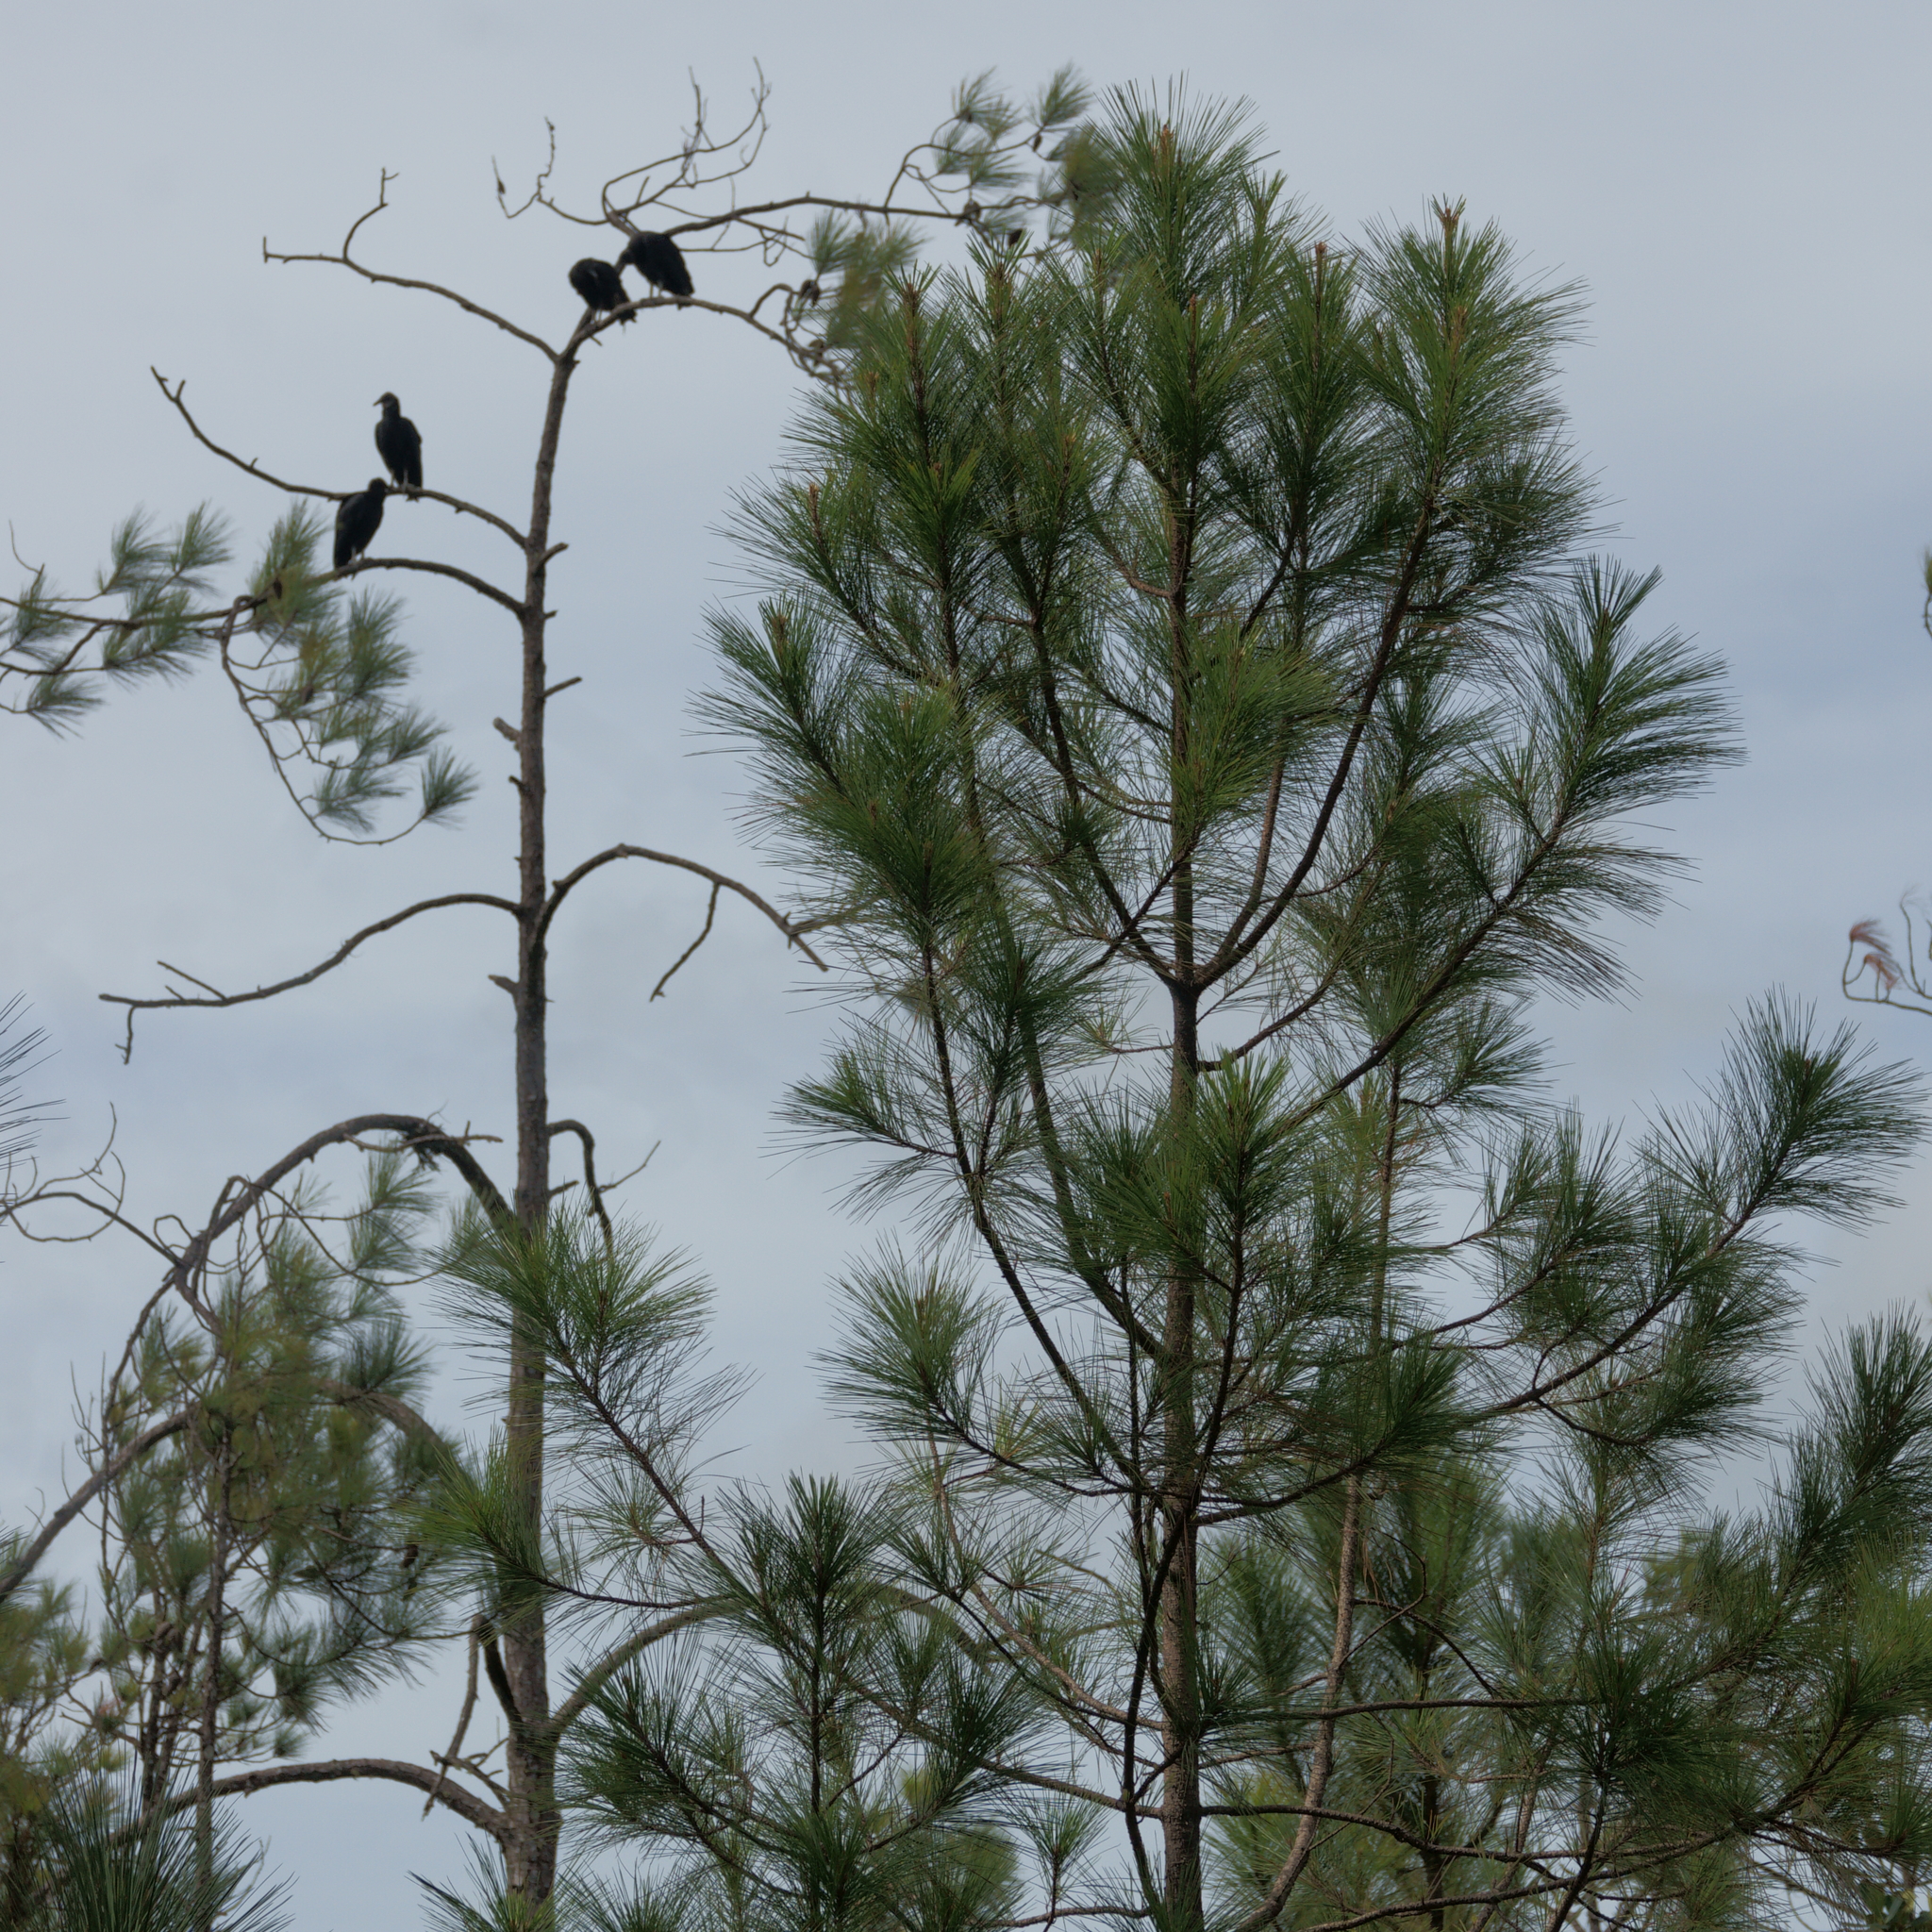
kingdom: Animalia
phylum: Chordata
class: Aves
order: Accipitriformes
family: Cathartidae
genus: Coragyps
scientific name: Coragyps atratus
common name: Black vulture
